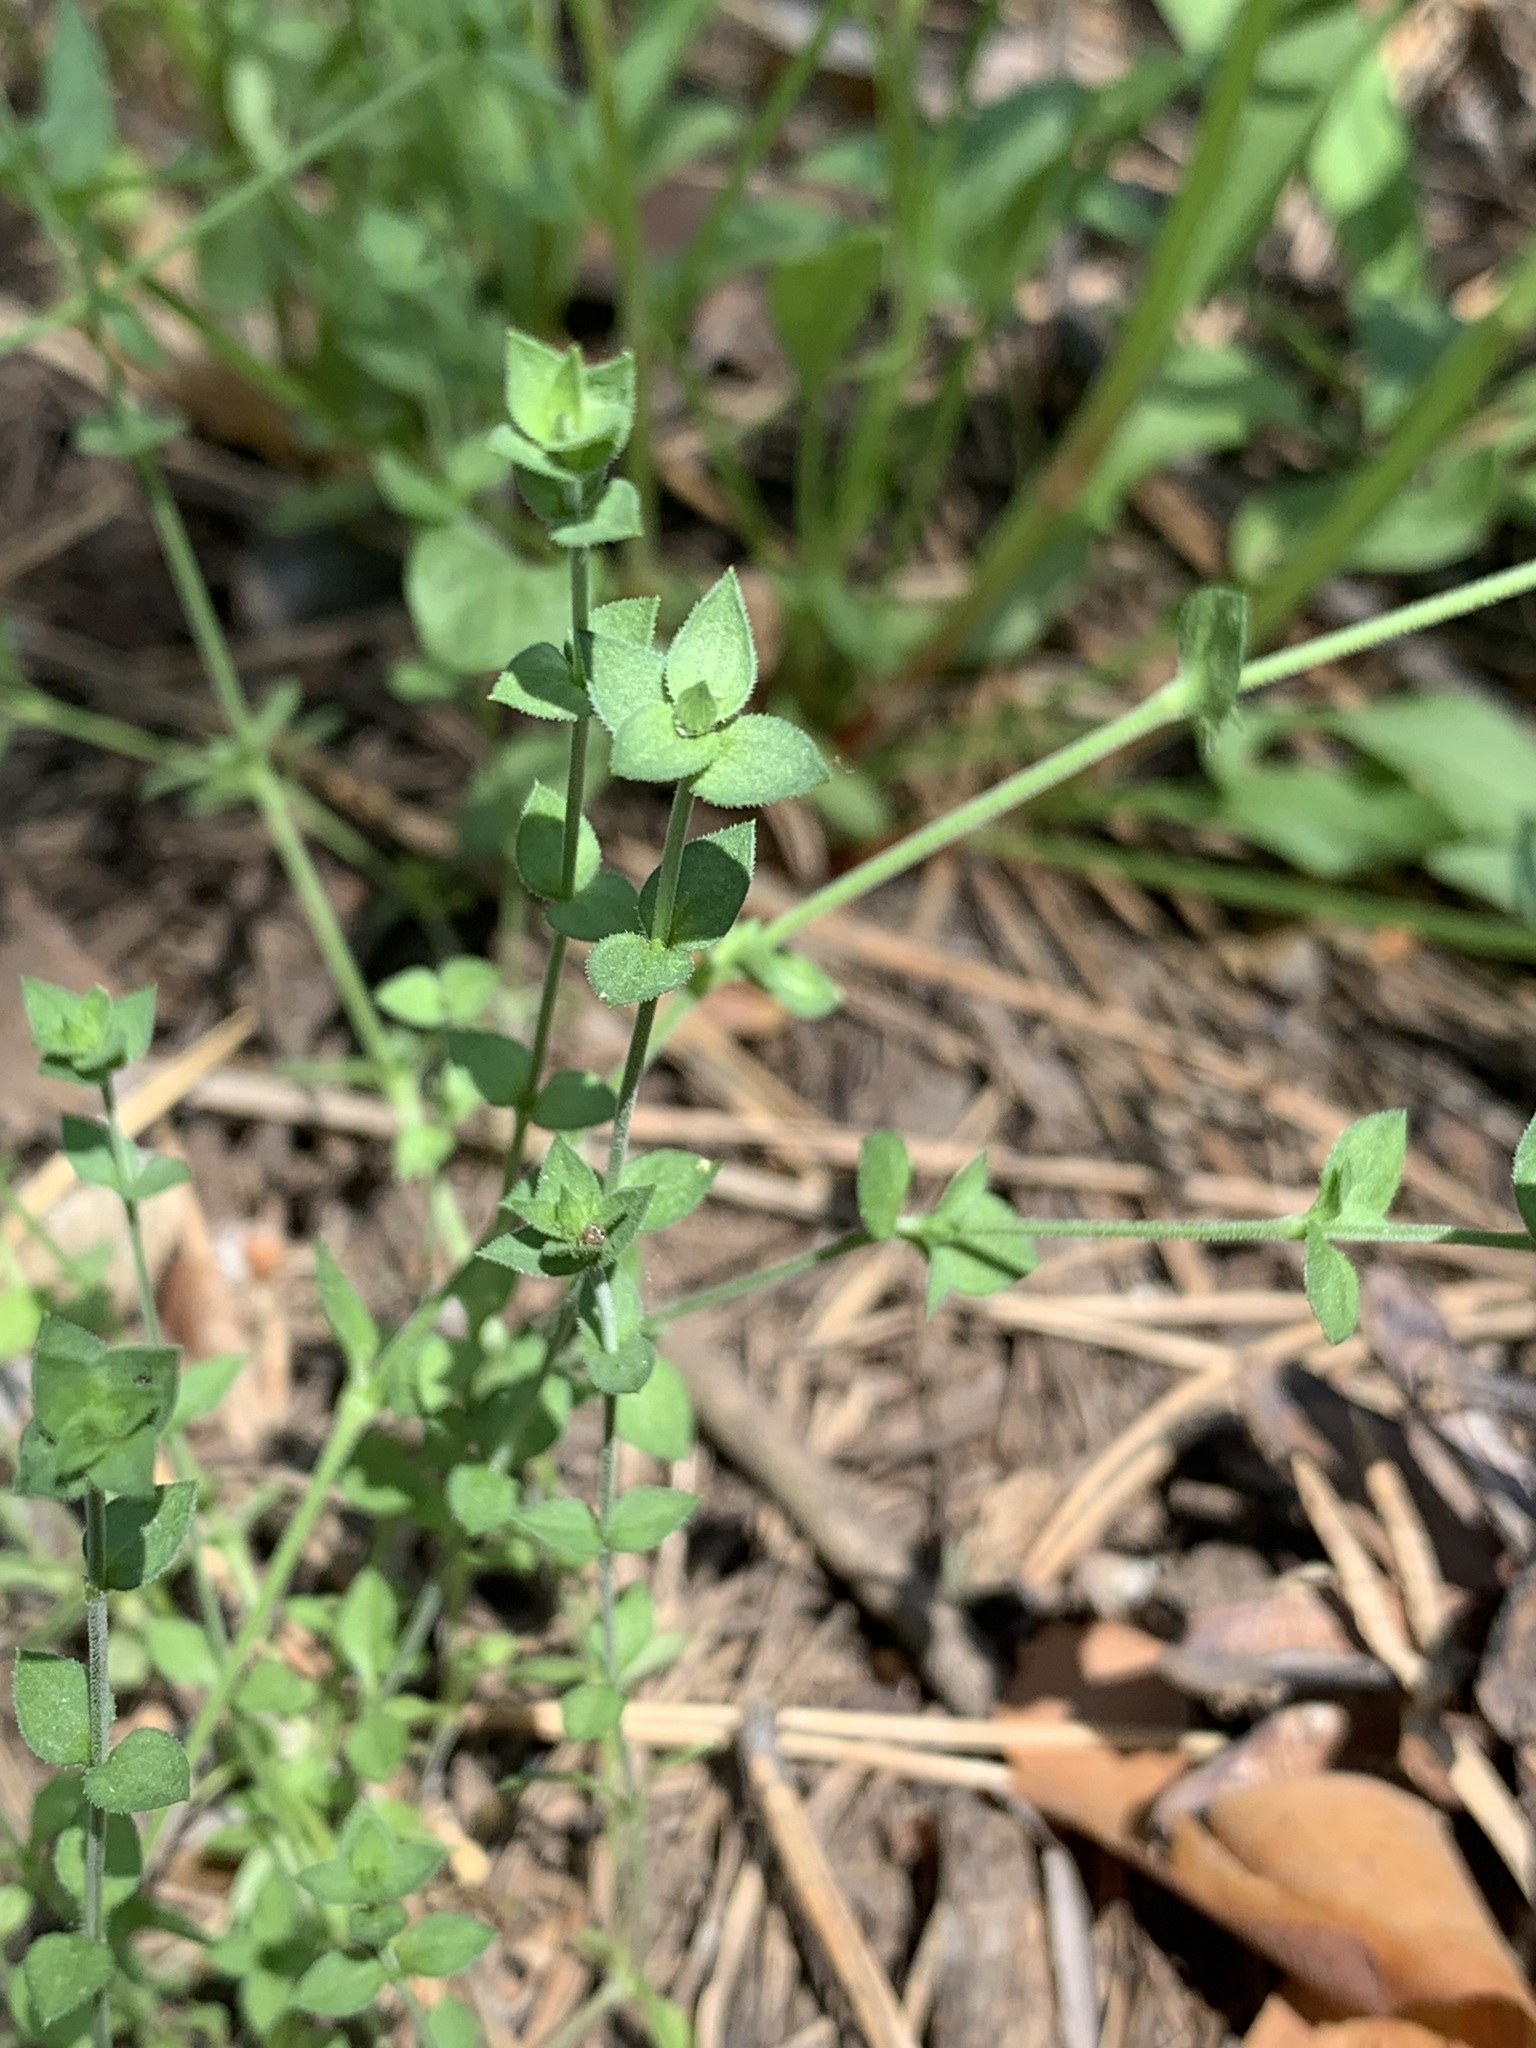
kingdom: Plantae
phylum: Tracheophyta
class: Magnoliopsida
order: Caryophyllales
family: Caryophyllaceae
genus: Arenaria
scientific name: Arenaria serpyllifolia
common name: Thyme-leaved sandwort
